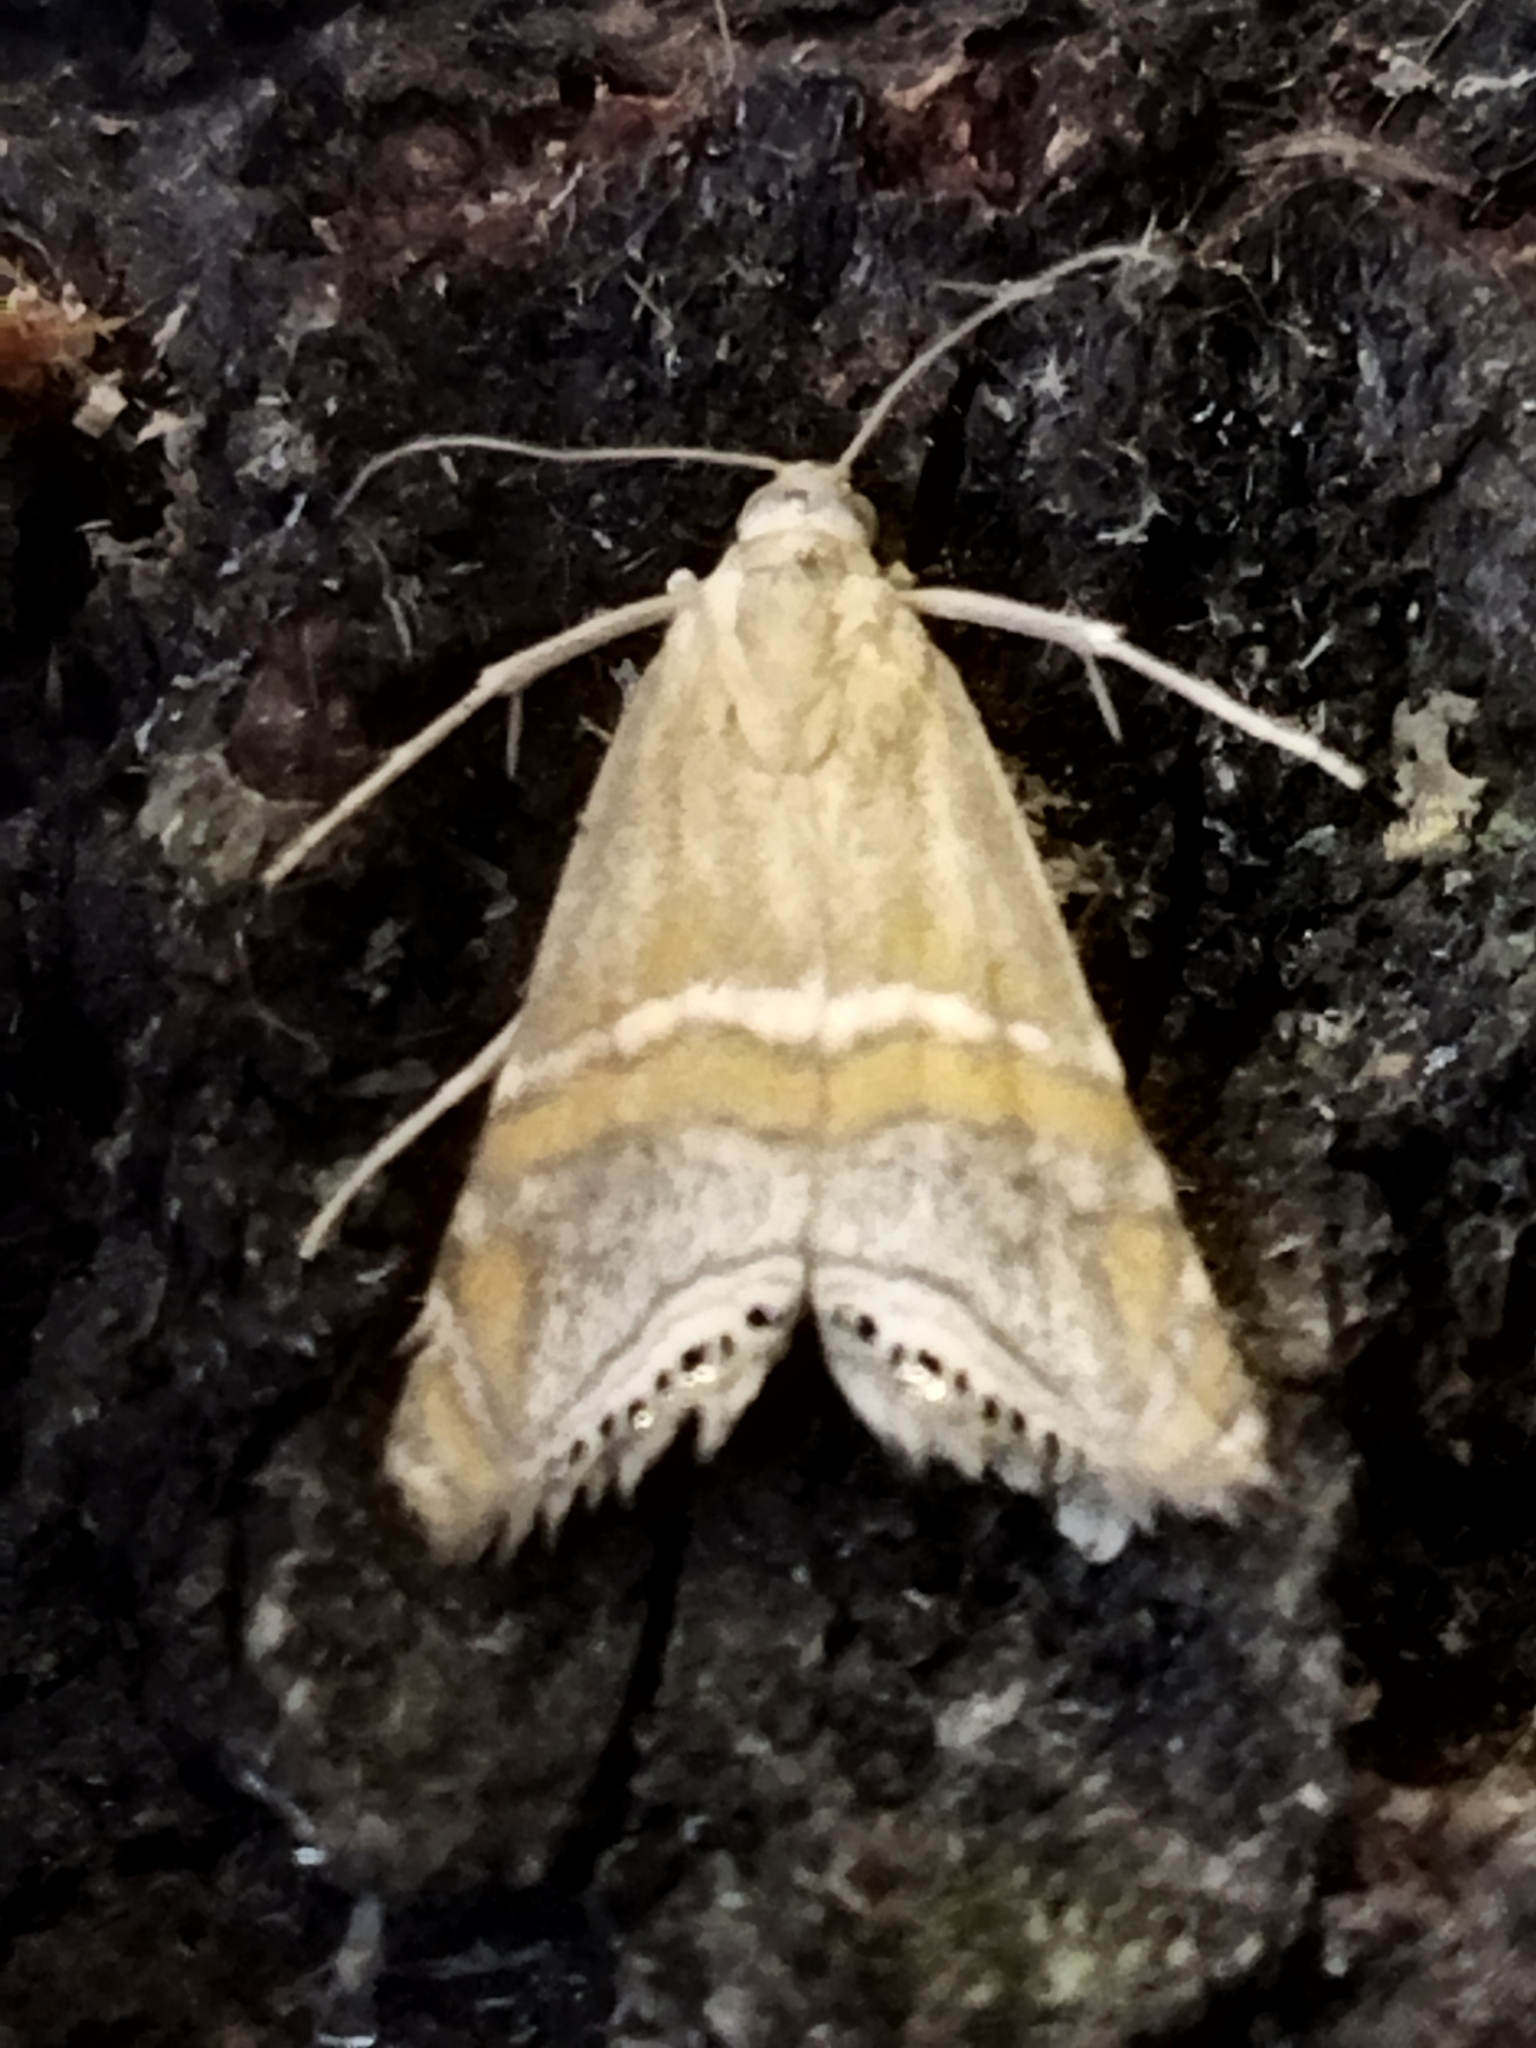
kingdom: Animalia
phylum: Arthropoda
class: Insecta
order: Lepidoptera
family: Crambidae
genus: Euchromius
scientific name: Euchromius bella
